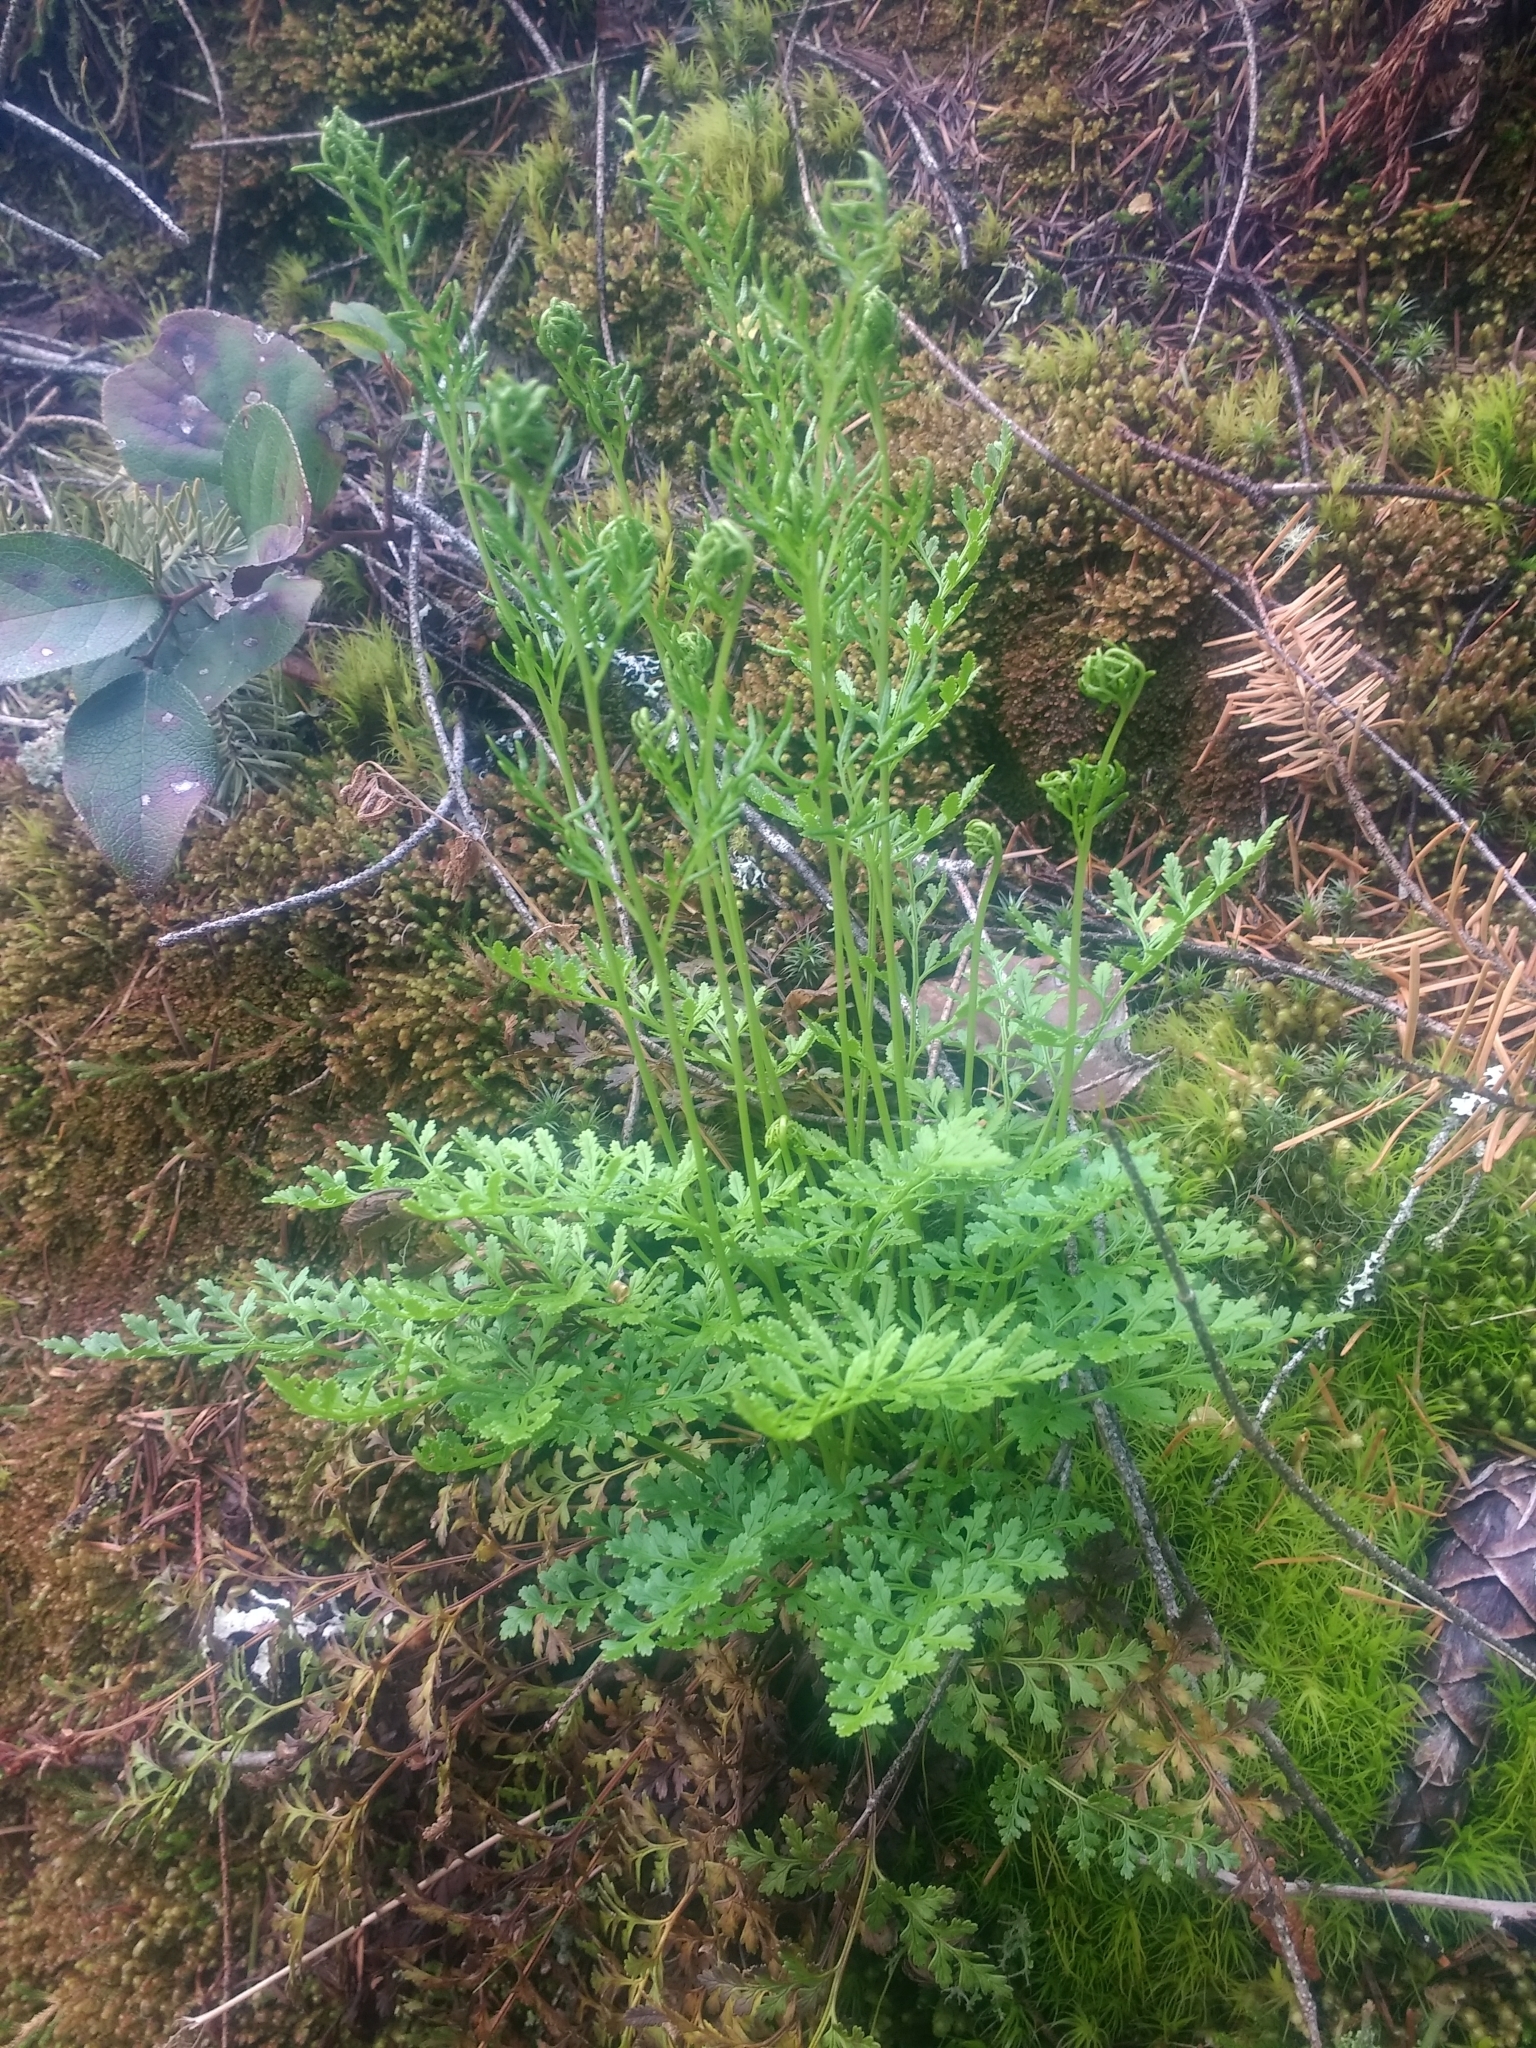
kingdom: Plantae
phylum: Tracheophyta
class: Polypodiopsida
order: Polypodiales
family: Pteridaceae
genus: Cryptogramma
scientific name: Cryptogramma acrostichoides
